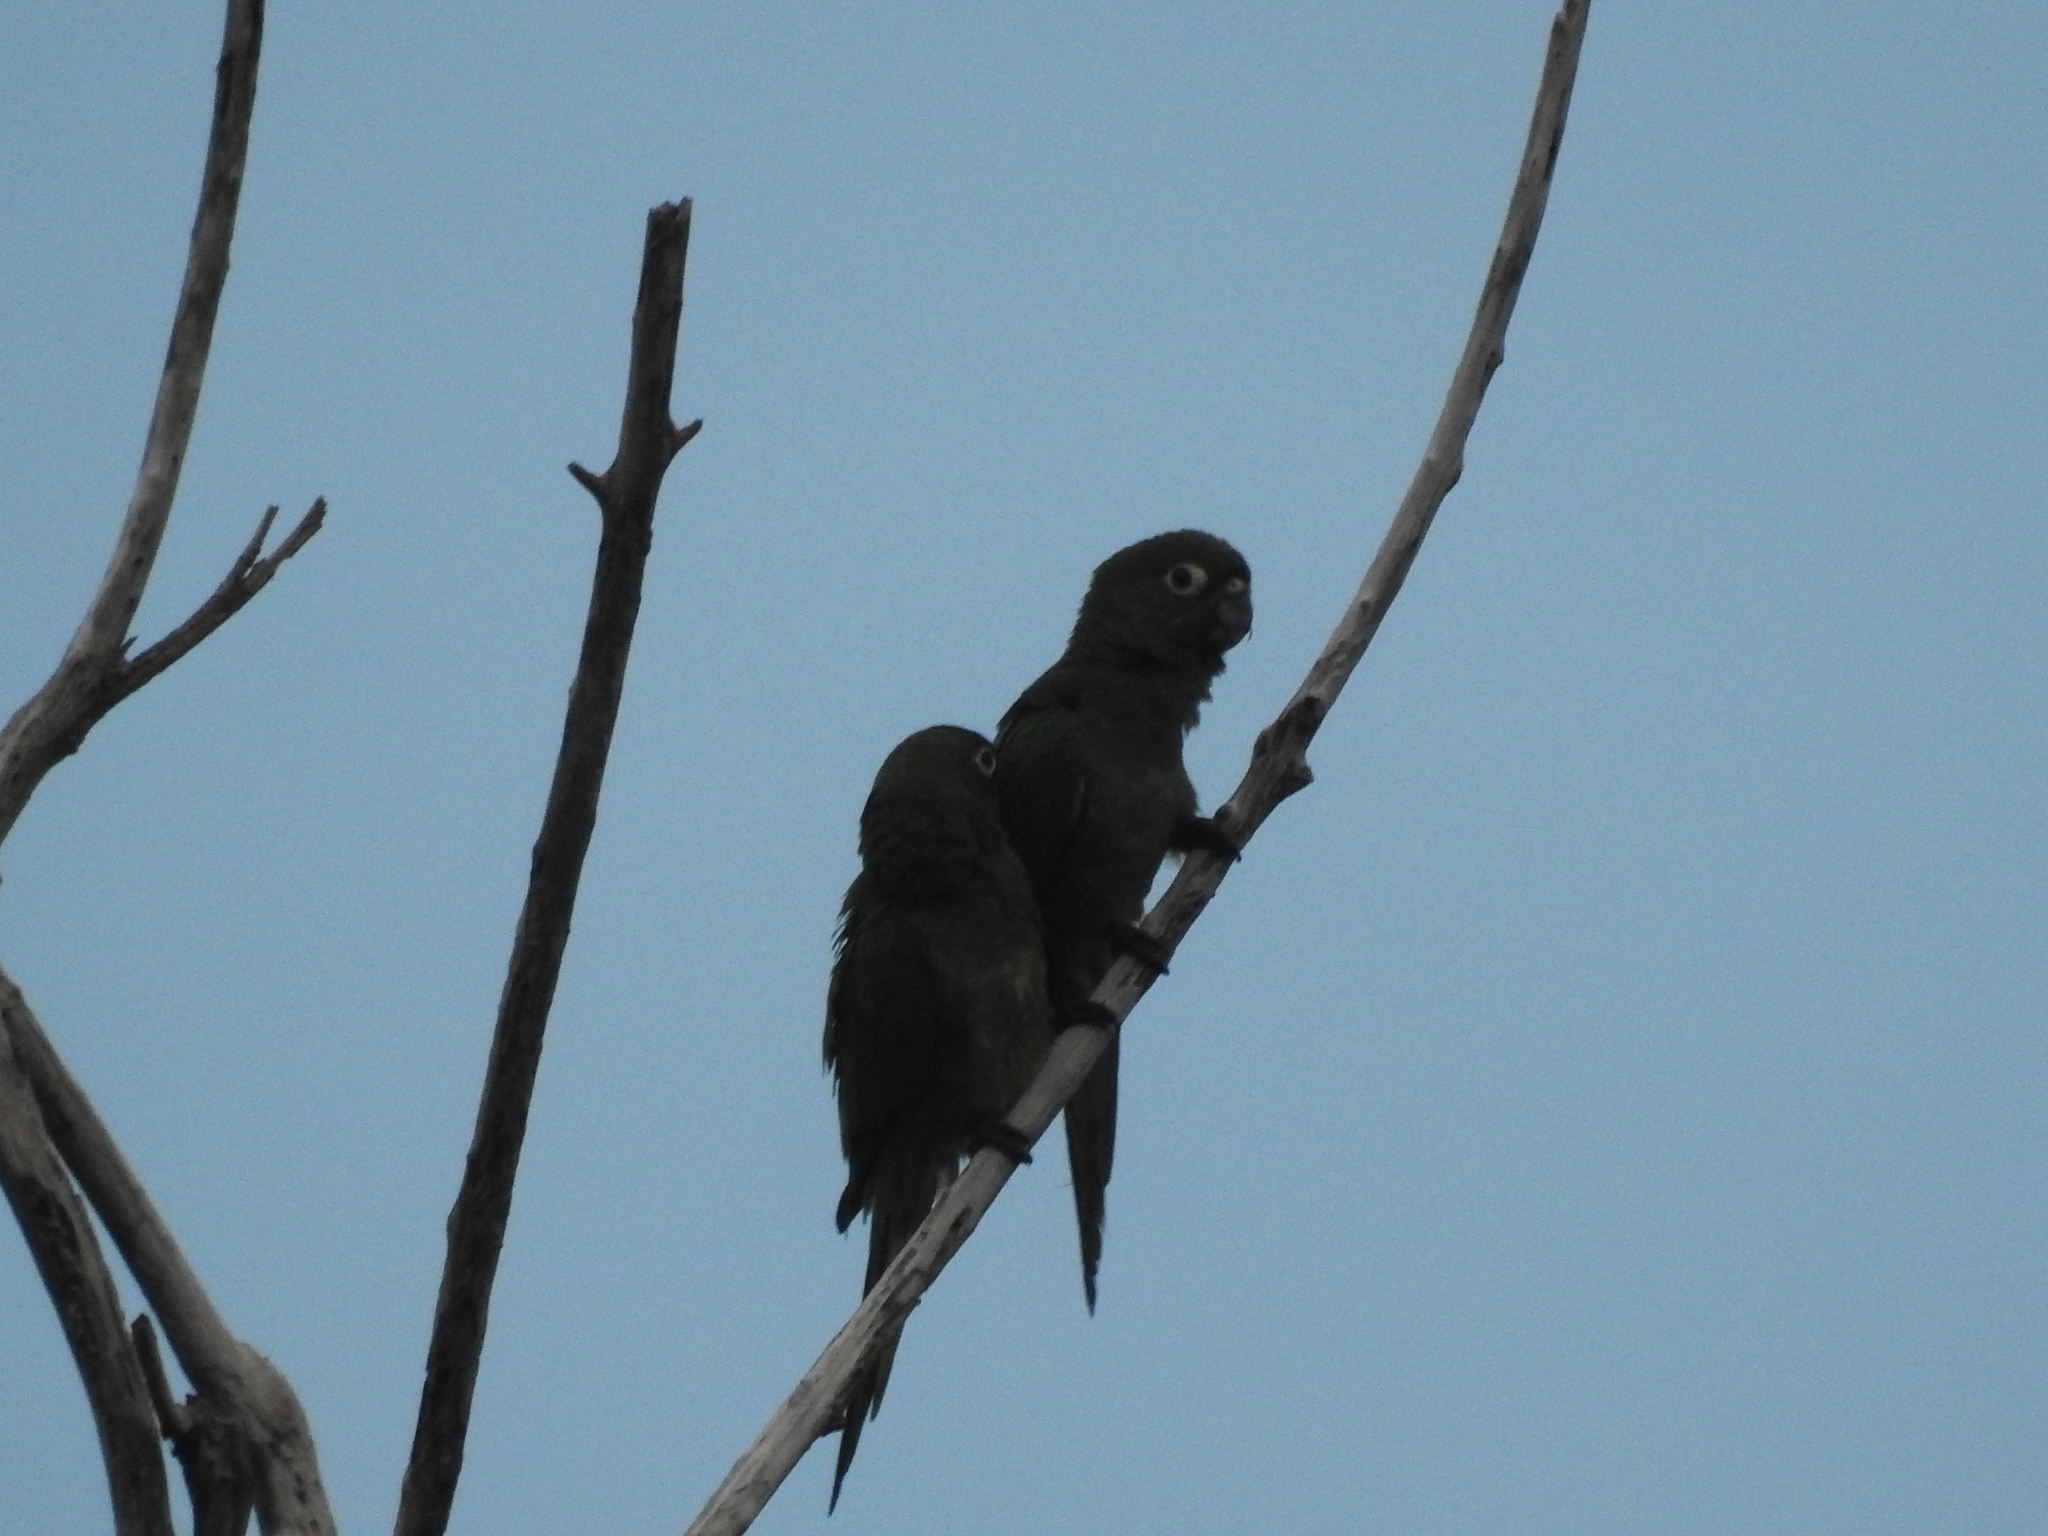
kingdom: Animalia
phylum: Chordata
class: Aves
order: Psittaciformes
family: Psittacidae
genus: Aratinga
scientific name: Aratinga nana
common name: Olive-throated parakeet
